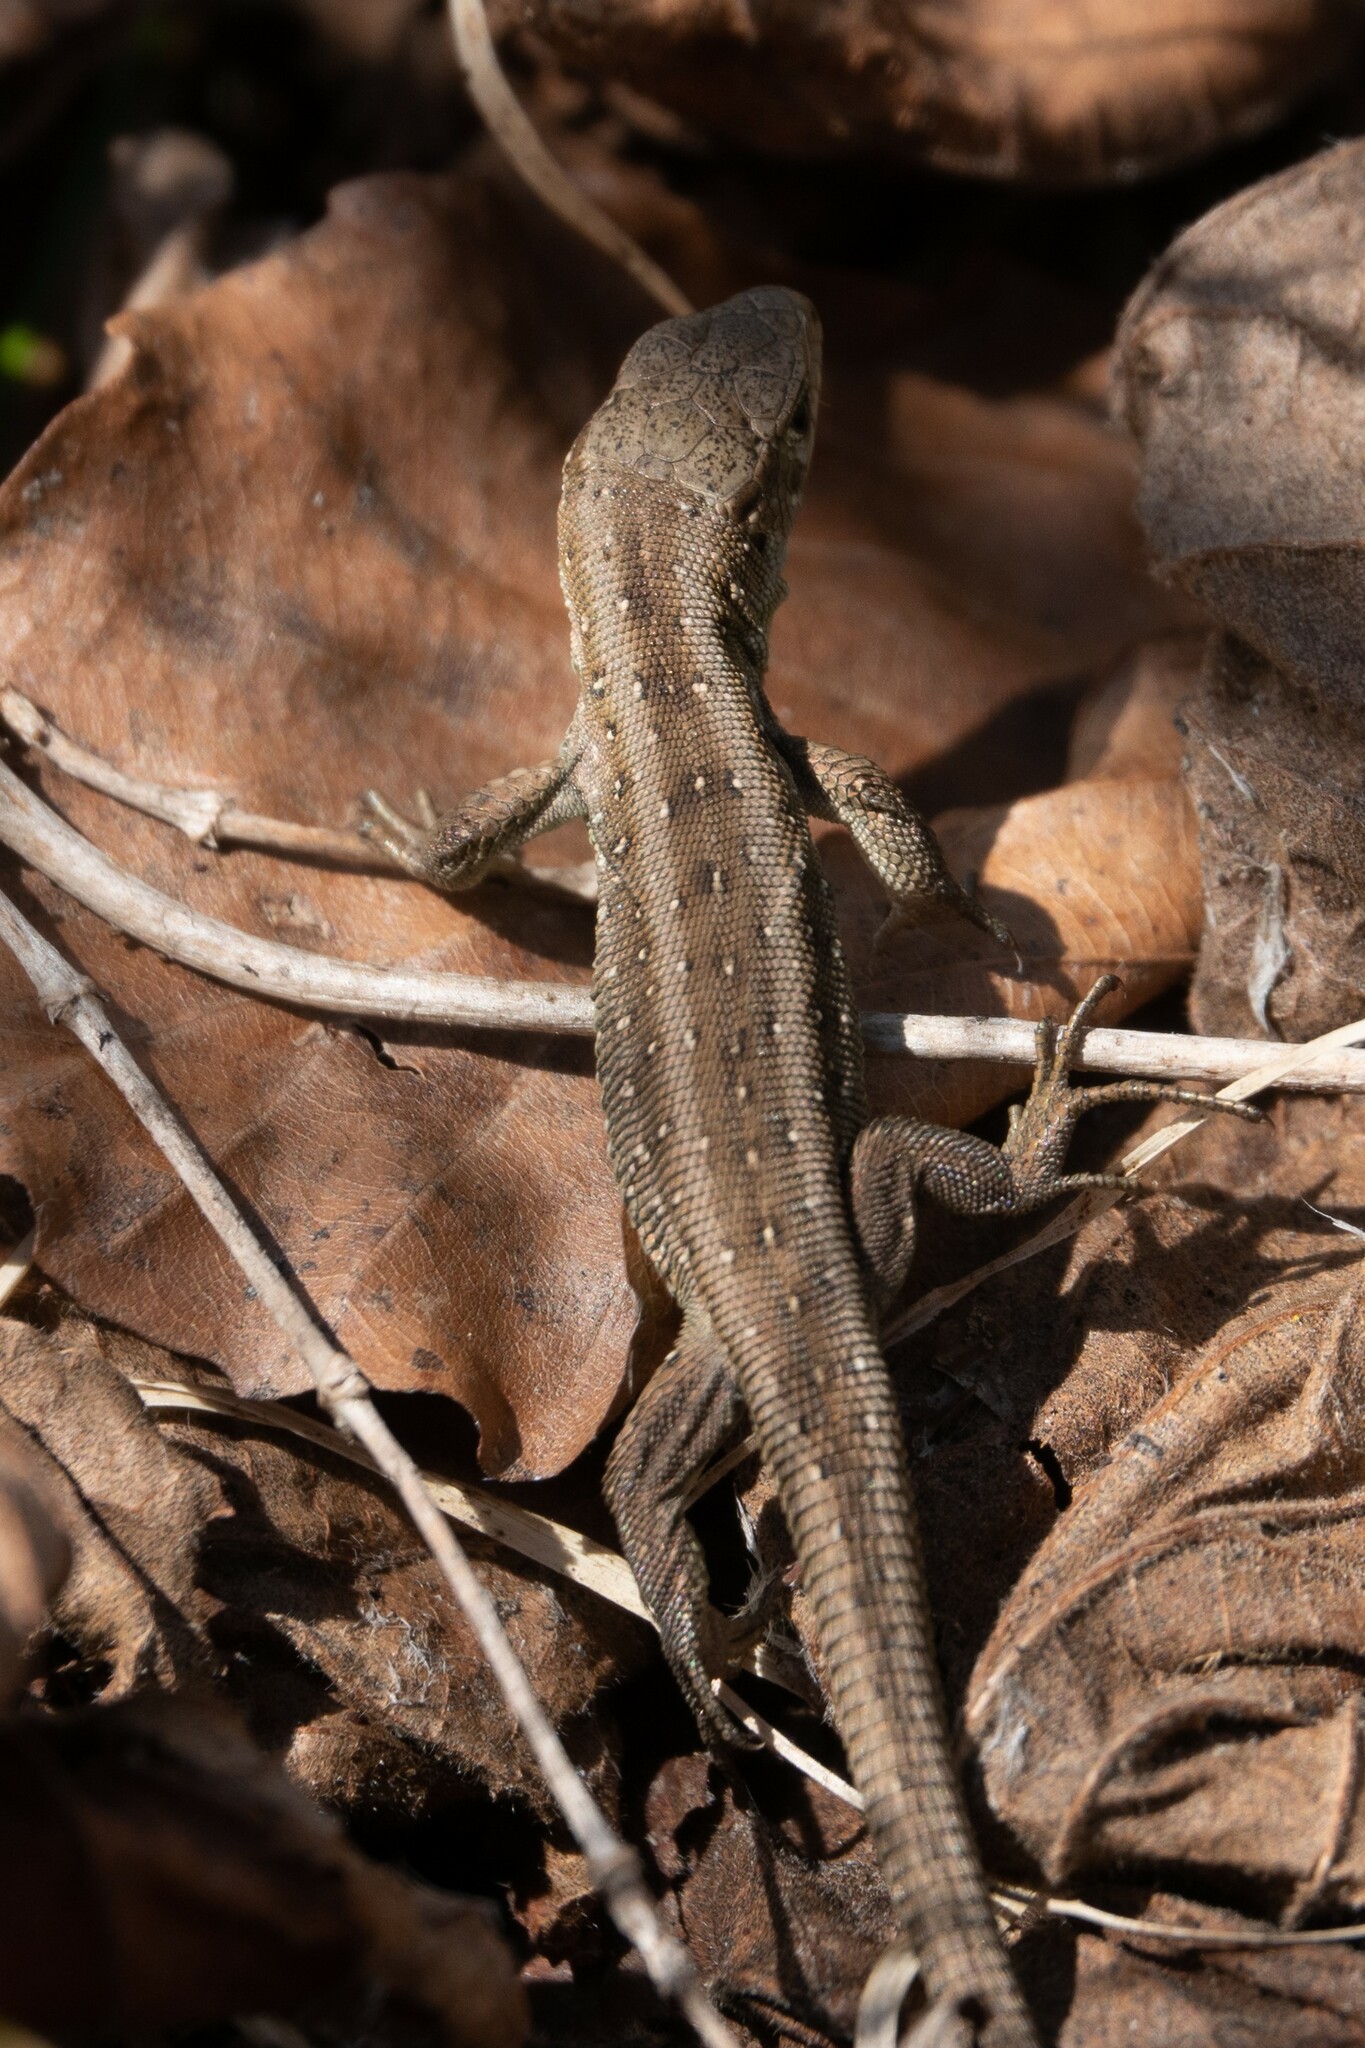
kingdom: Animalia
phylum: Chordata
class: Squamata
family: Lacertidae
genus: Lacerta
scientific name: Lacerta agilis
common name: Sand lizard
